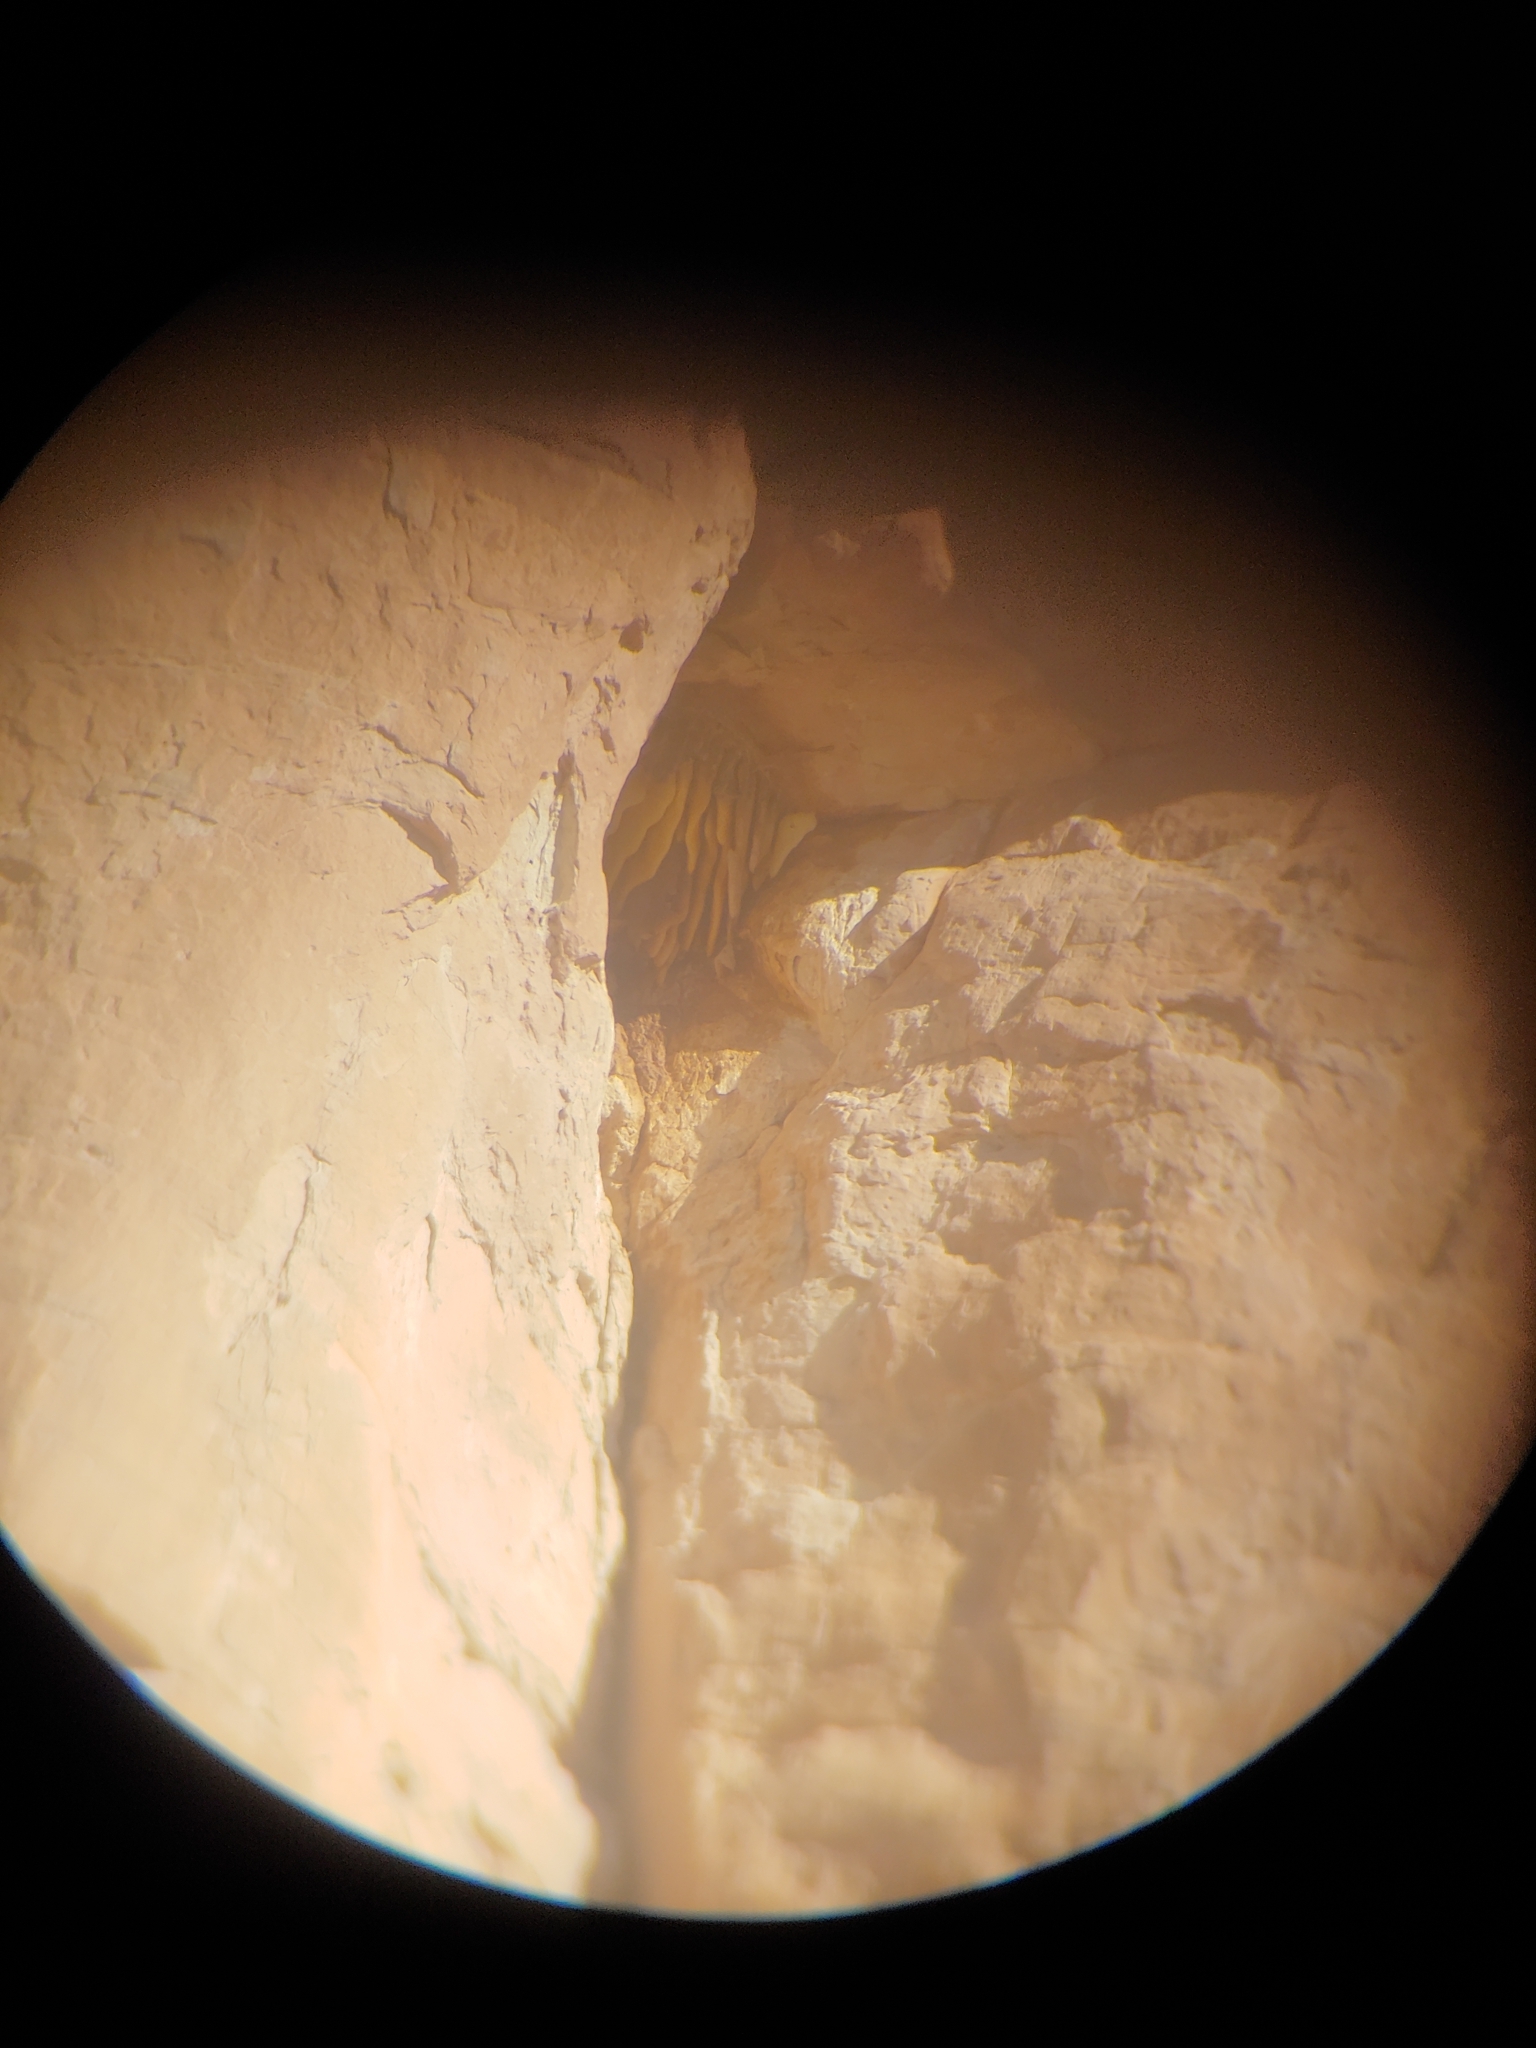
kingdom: Animalia
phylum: Arthropoda
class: Insecta
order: Hymenoptera
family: Apidae
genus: Apis
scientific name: Apis mellifera
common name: Honey bee
